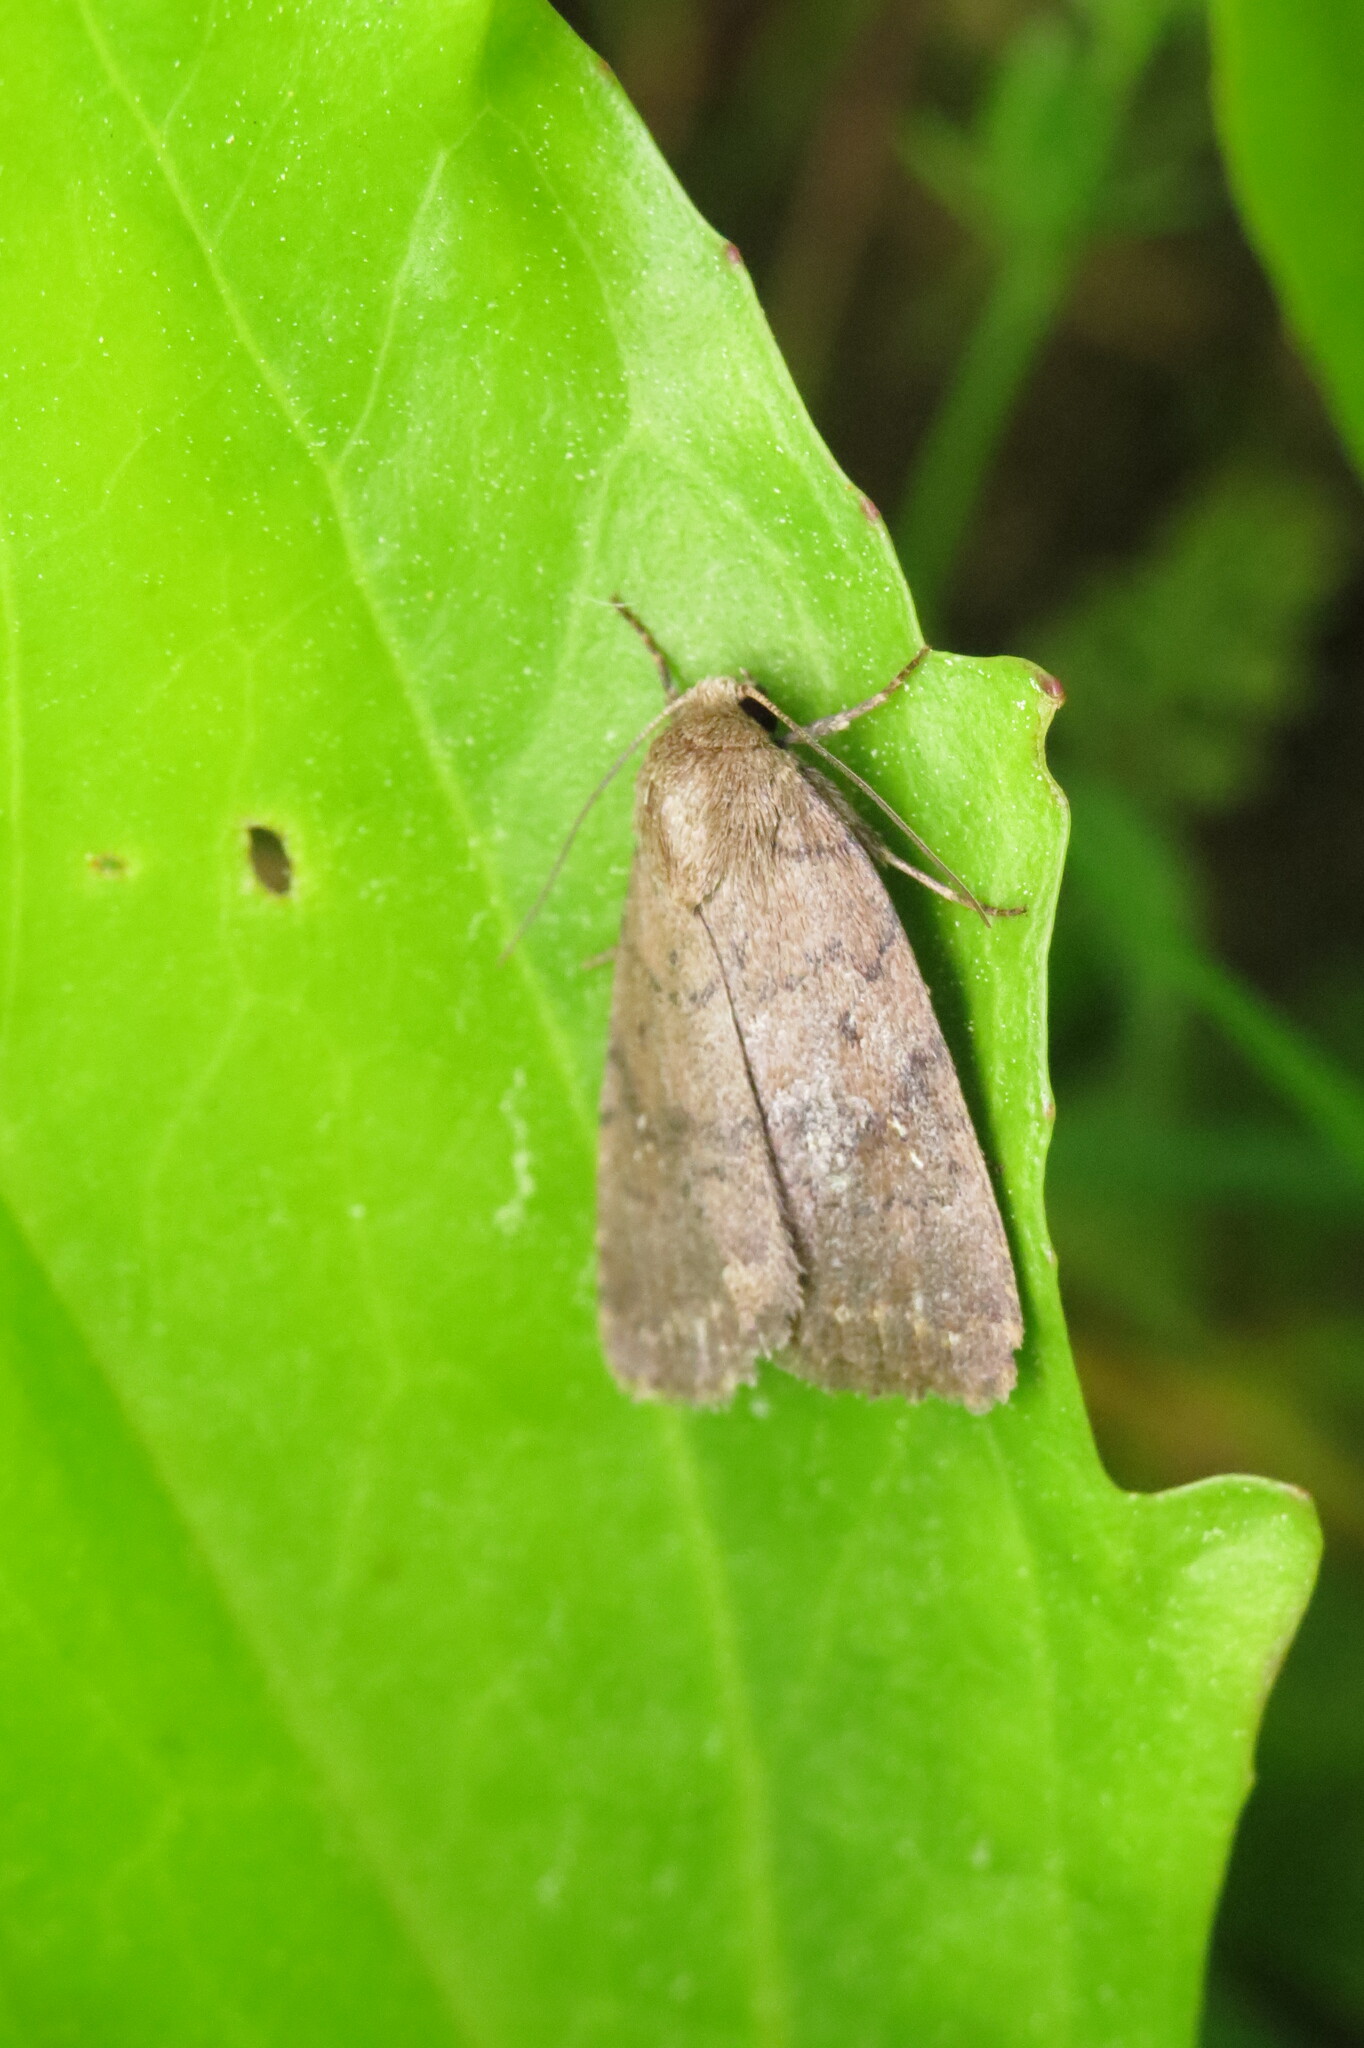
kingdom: Animalia
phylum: Arthropoda
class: Insecta
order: Lepidoptera
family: Noctuidae
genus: Athetis
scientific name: Athetis tarda
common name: Slowpoke moth
